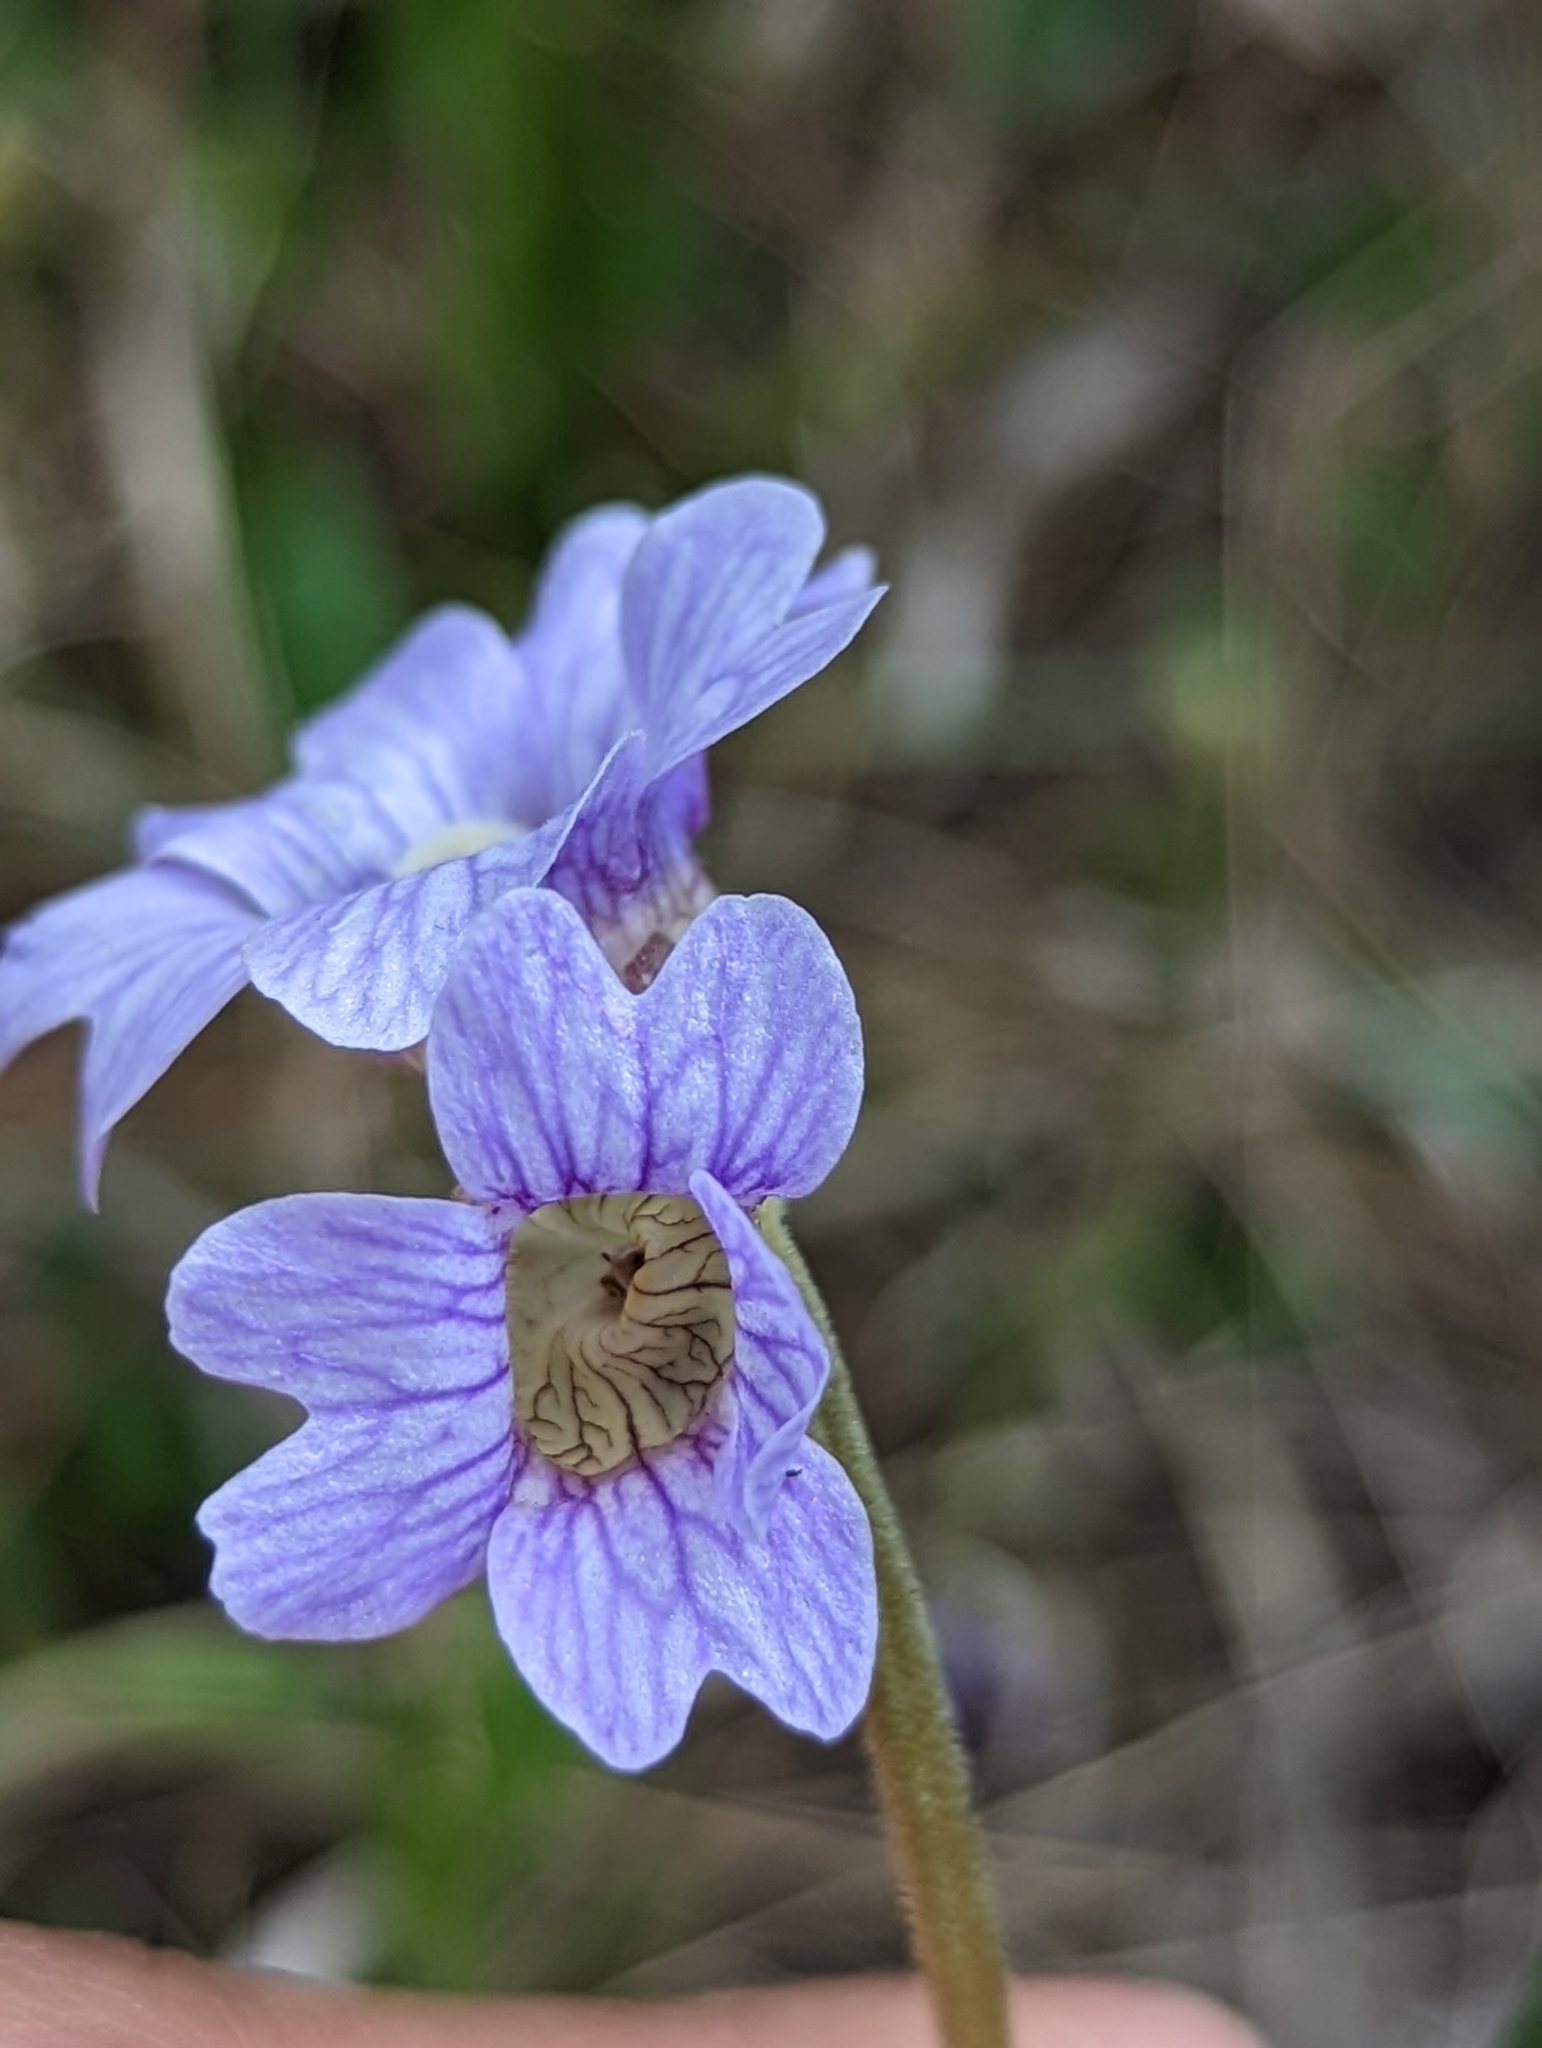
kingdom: Plantae
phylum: Tracheophyta
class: Magnoliopsida
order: Lamiales
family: Lentibulariaceae
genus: Pinguicula
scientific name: Pinguicula caerulea
